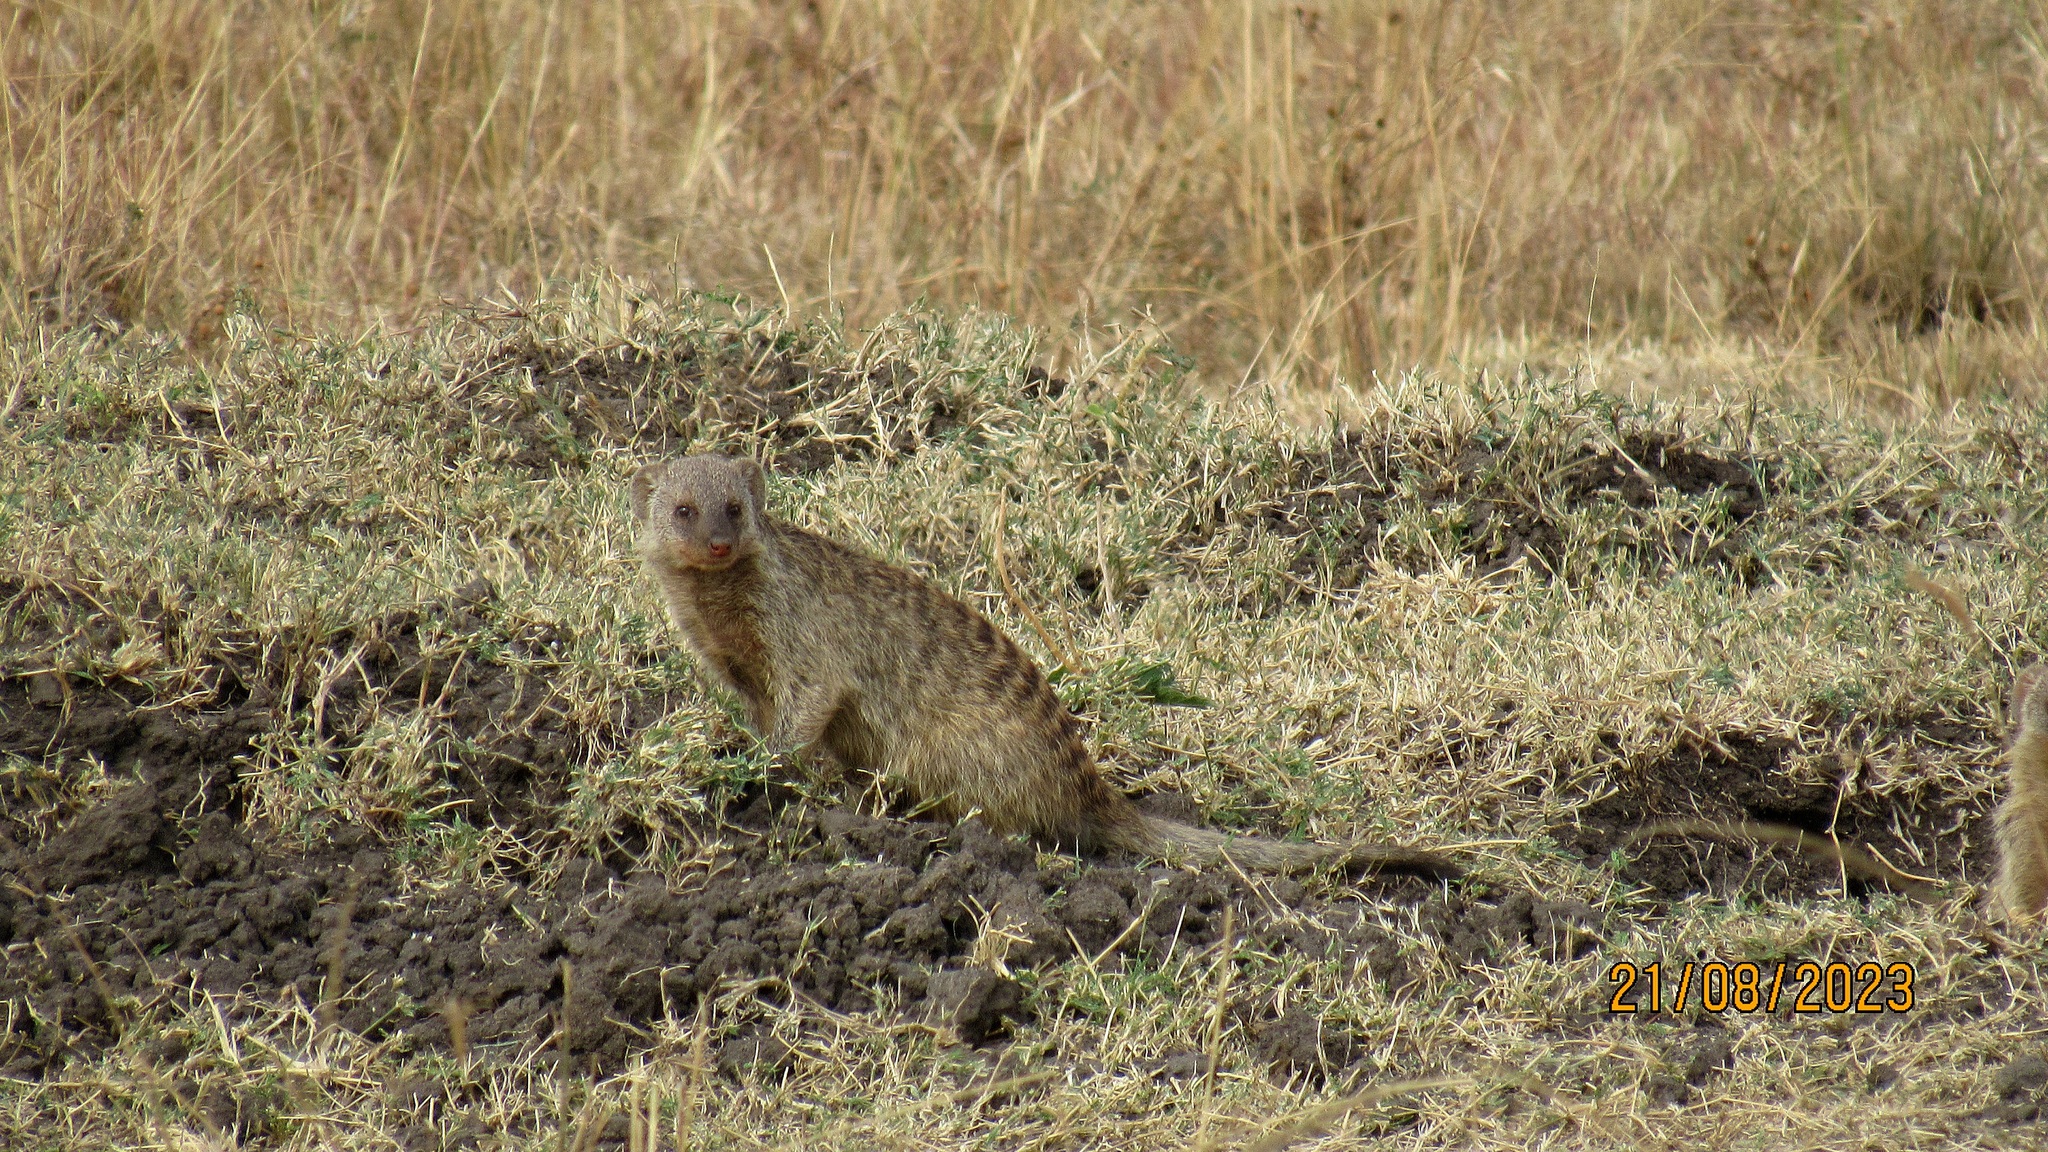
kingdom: Animalia
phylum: Chordata
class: Mammalia
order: Carnivora
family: Herpestidae
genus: Mungos
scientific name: Mungos mungo
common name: Banded mongoose
